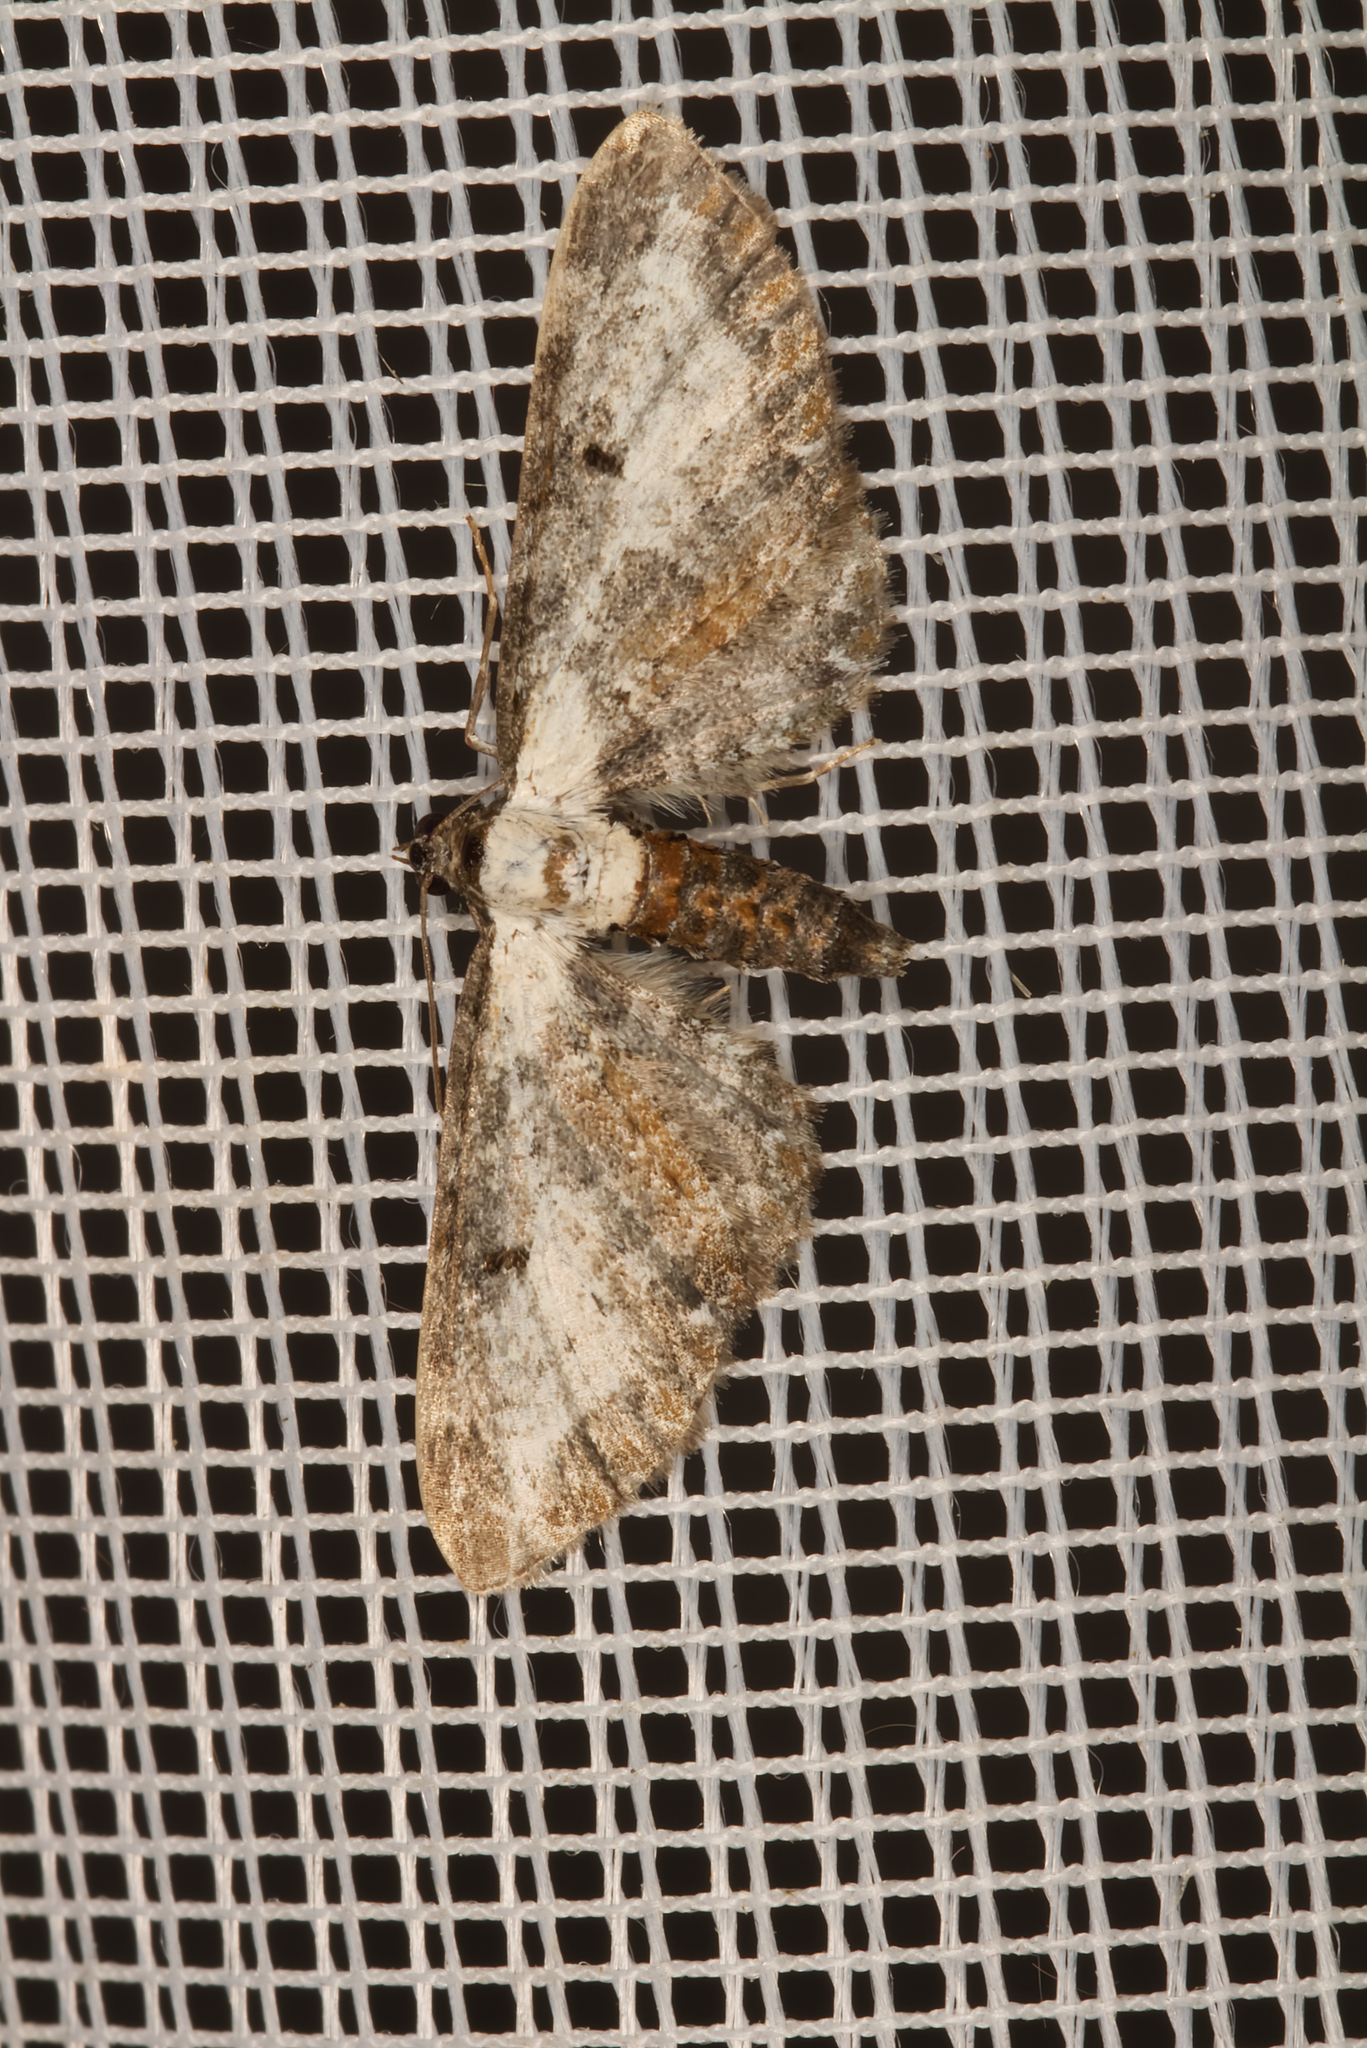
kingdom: Animalia
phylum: Arthropoda
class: Insecta
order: Lepidoptera
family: Geometridae
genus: Eupithecia
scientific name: Eupithecia succenturiata
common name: Bordered pug
